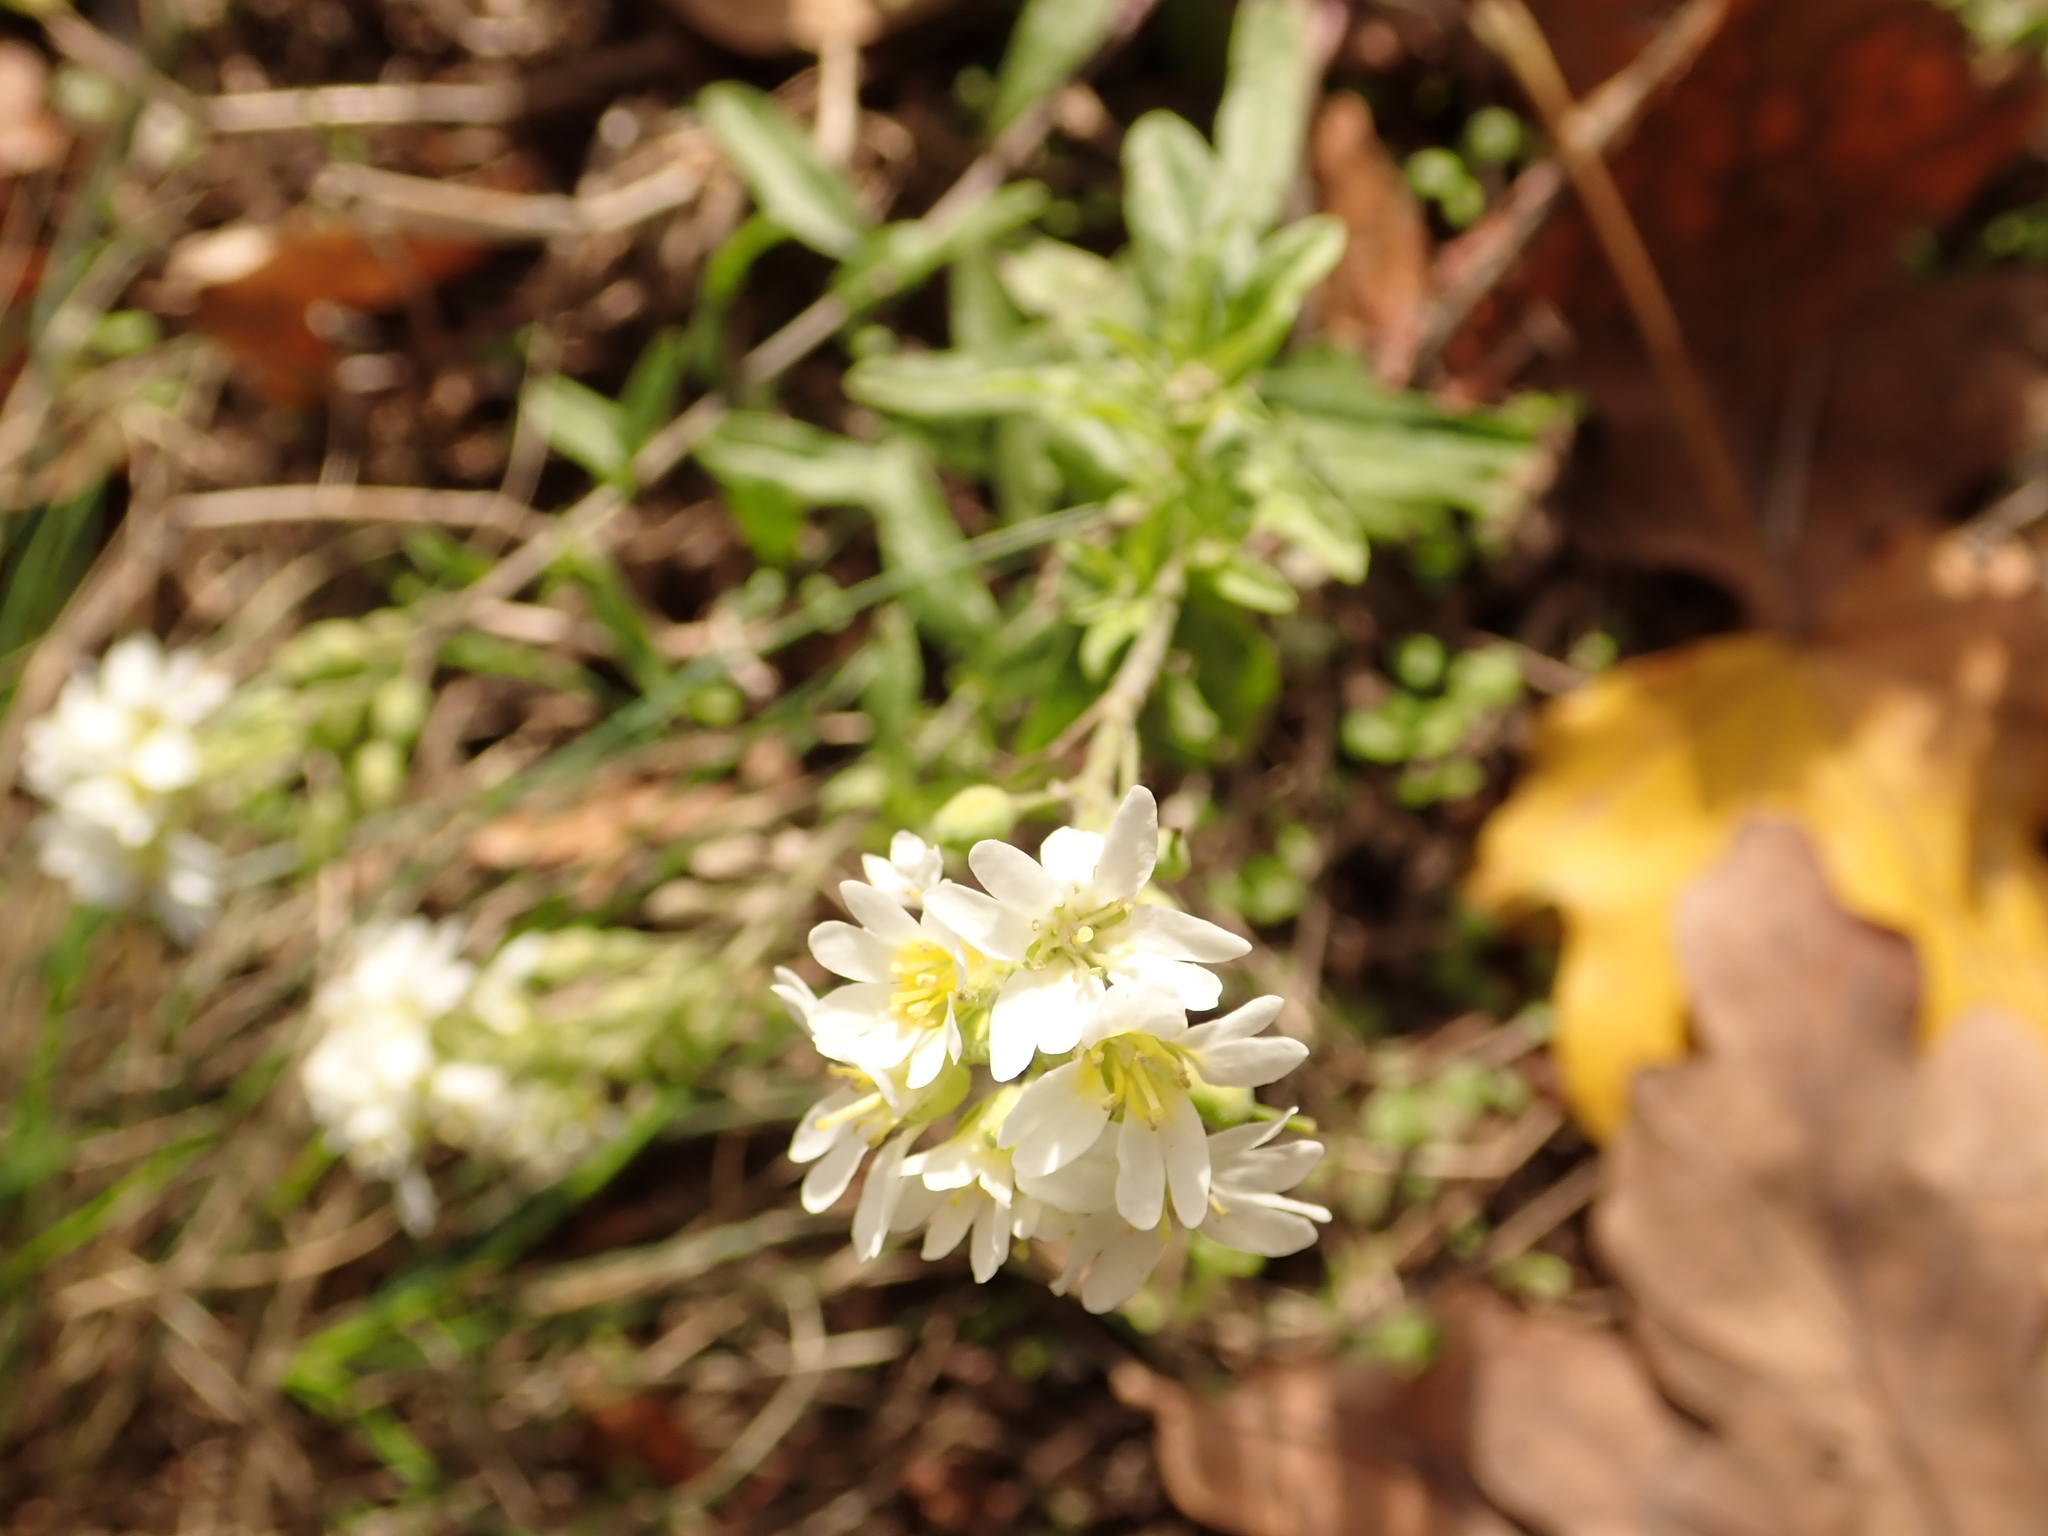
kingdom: Plantae
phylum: Tracheophyta
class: Magnoliopsida
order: Brassicales
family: Brassicaceae
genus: Berteroa
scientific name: Berteroa incana
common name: Hoary alison
